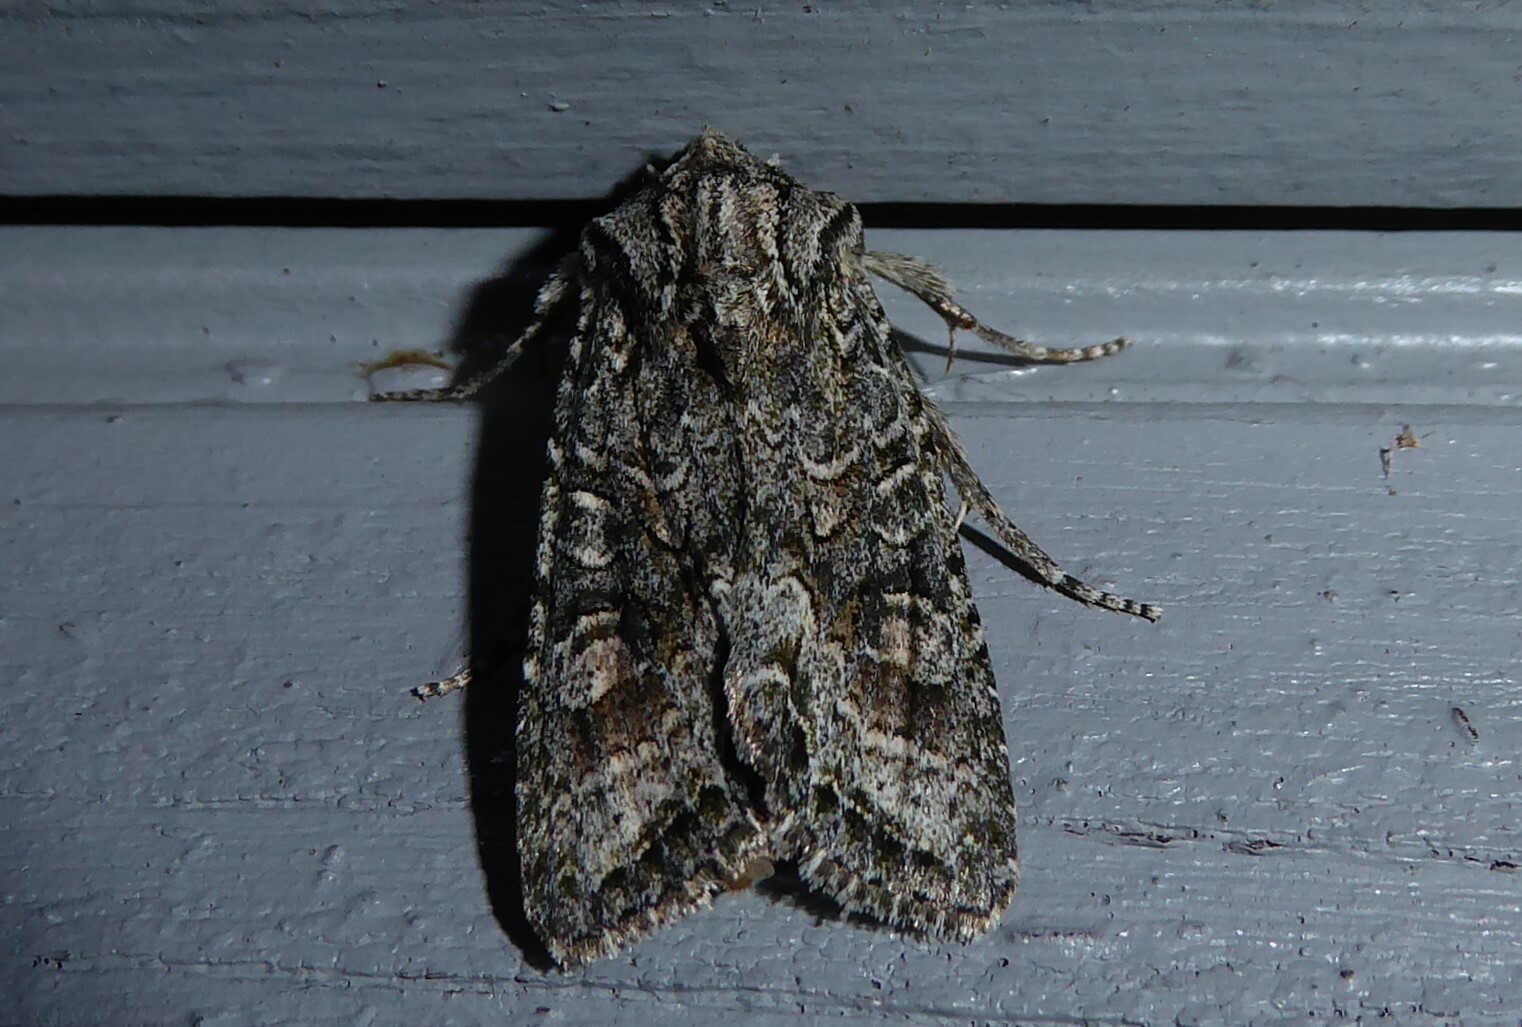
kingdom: Animalia
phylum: Arthropoda
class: Insecta
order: Lepidoptera
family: Noctuidae
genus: Ichneutica
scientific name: Ichneutica mutans
